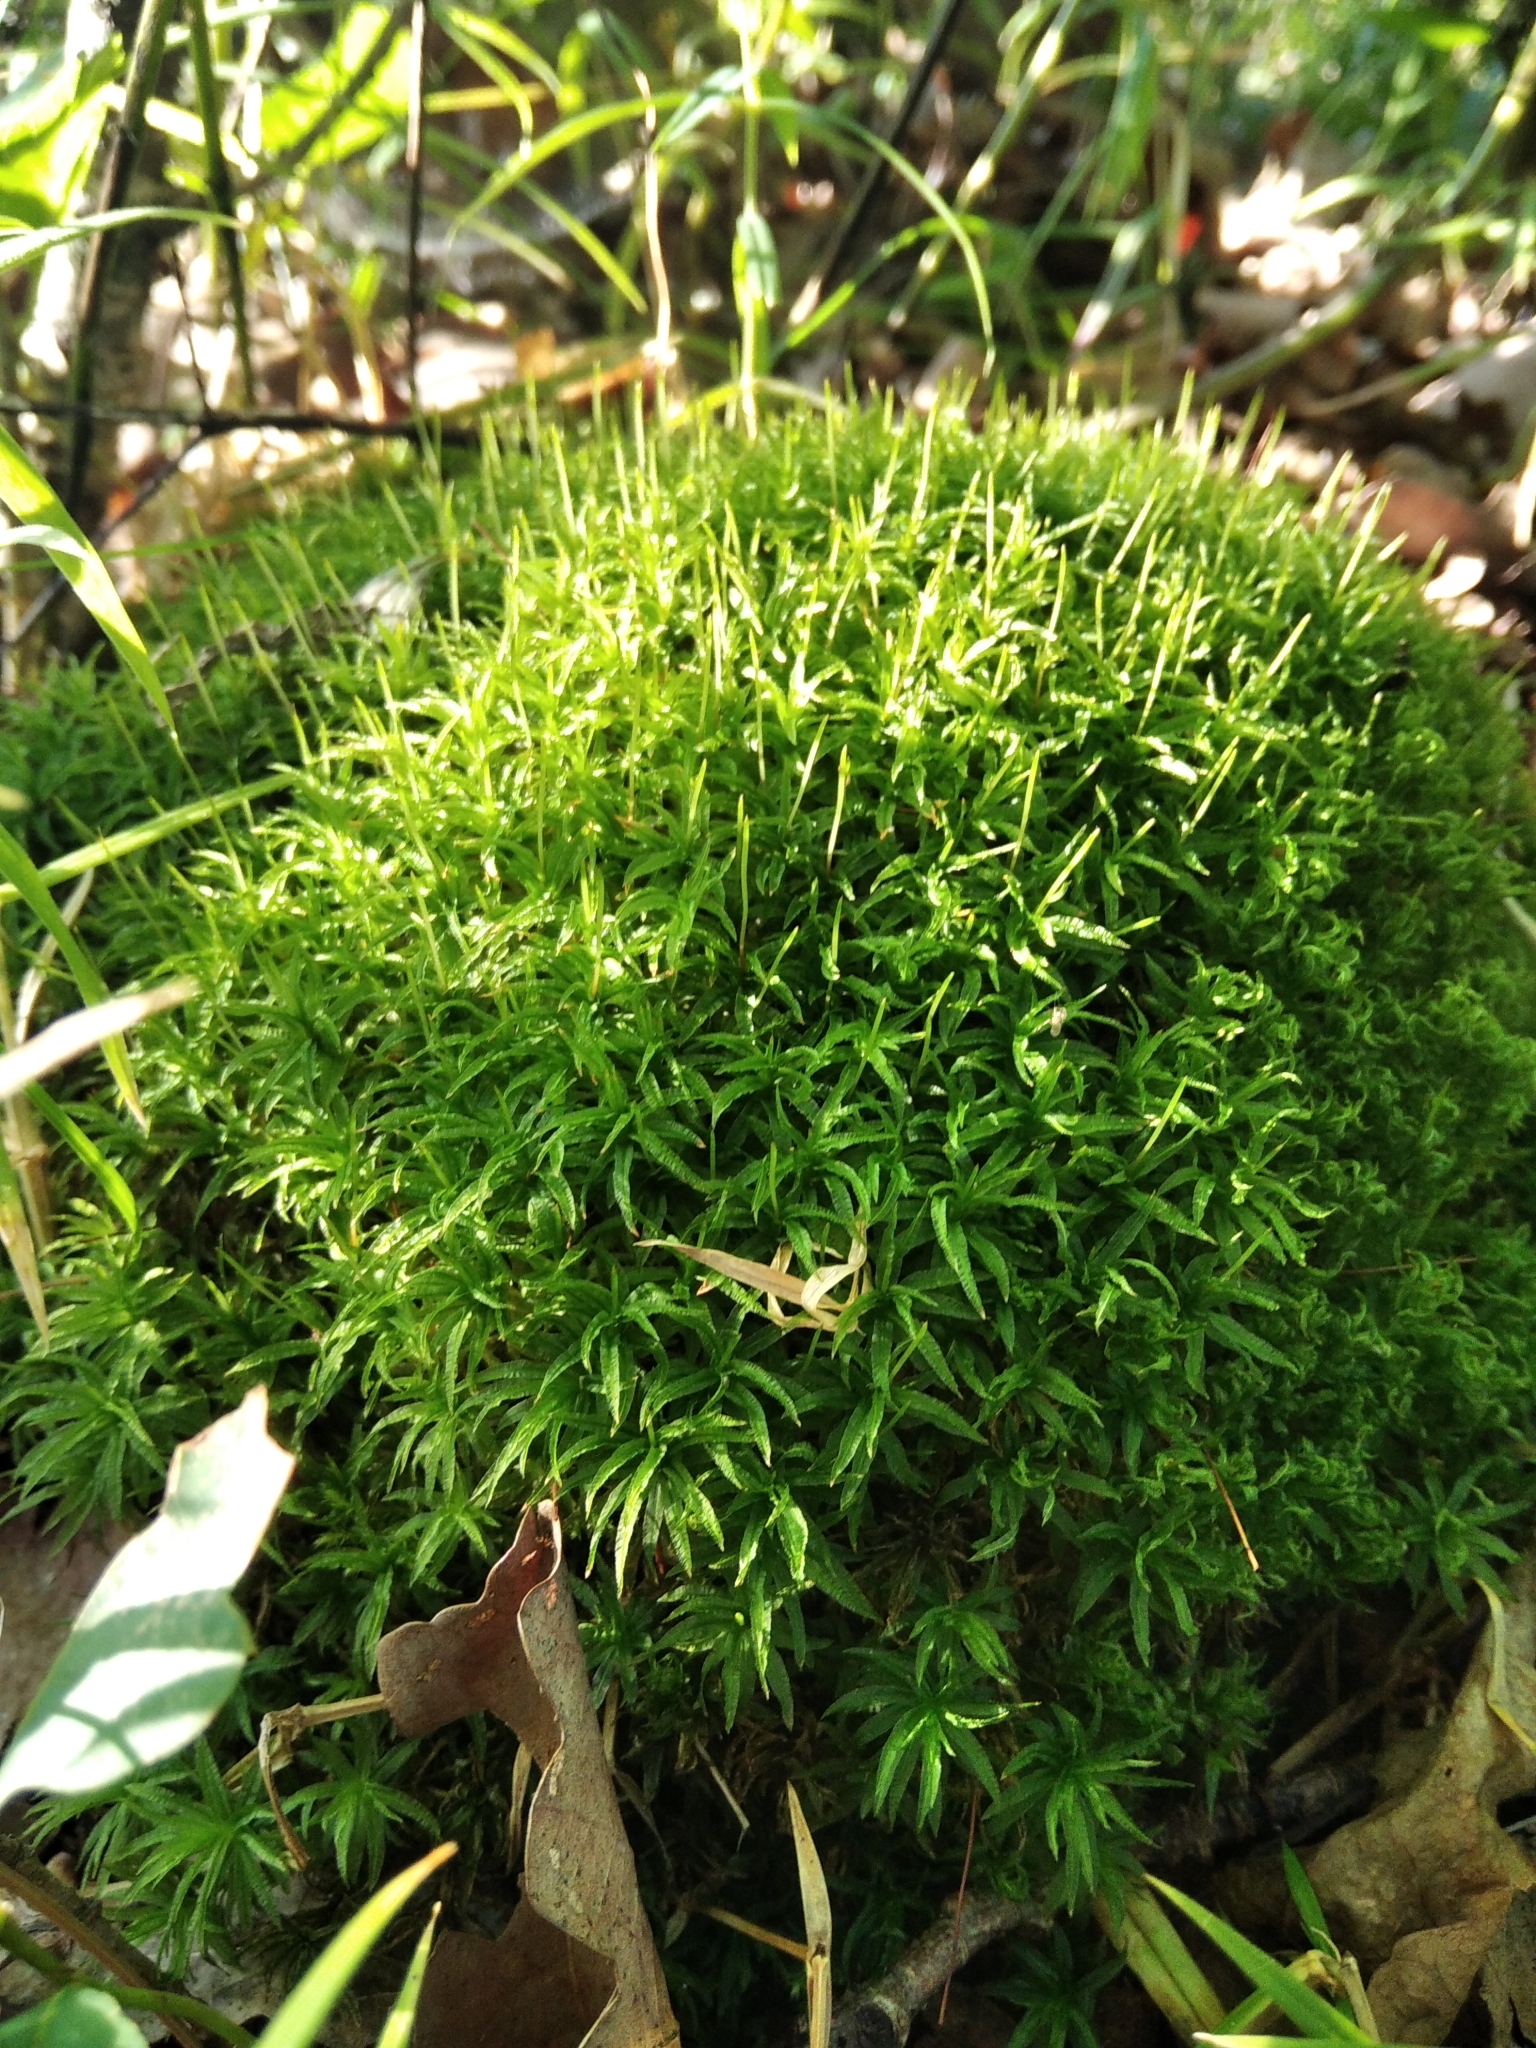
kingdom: Plantae
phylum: Bryophyta
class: Polytrichopsida
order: Polytrichales
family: Polytrichaceae
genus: Atrichum
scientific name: Atrichum undulatum
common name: Common smoothcap
